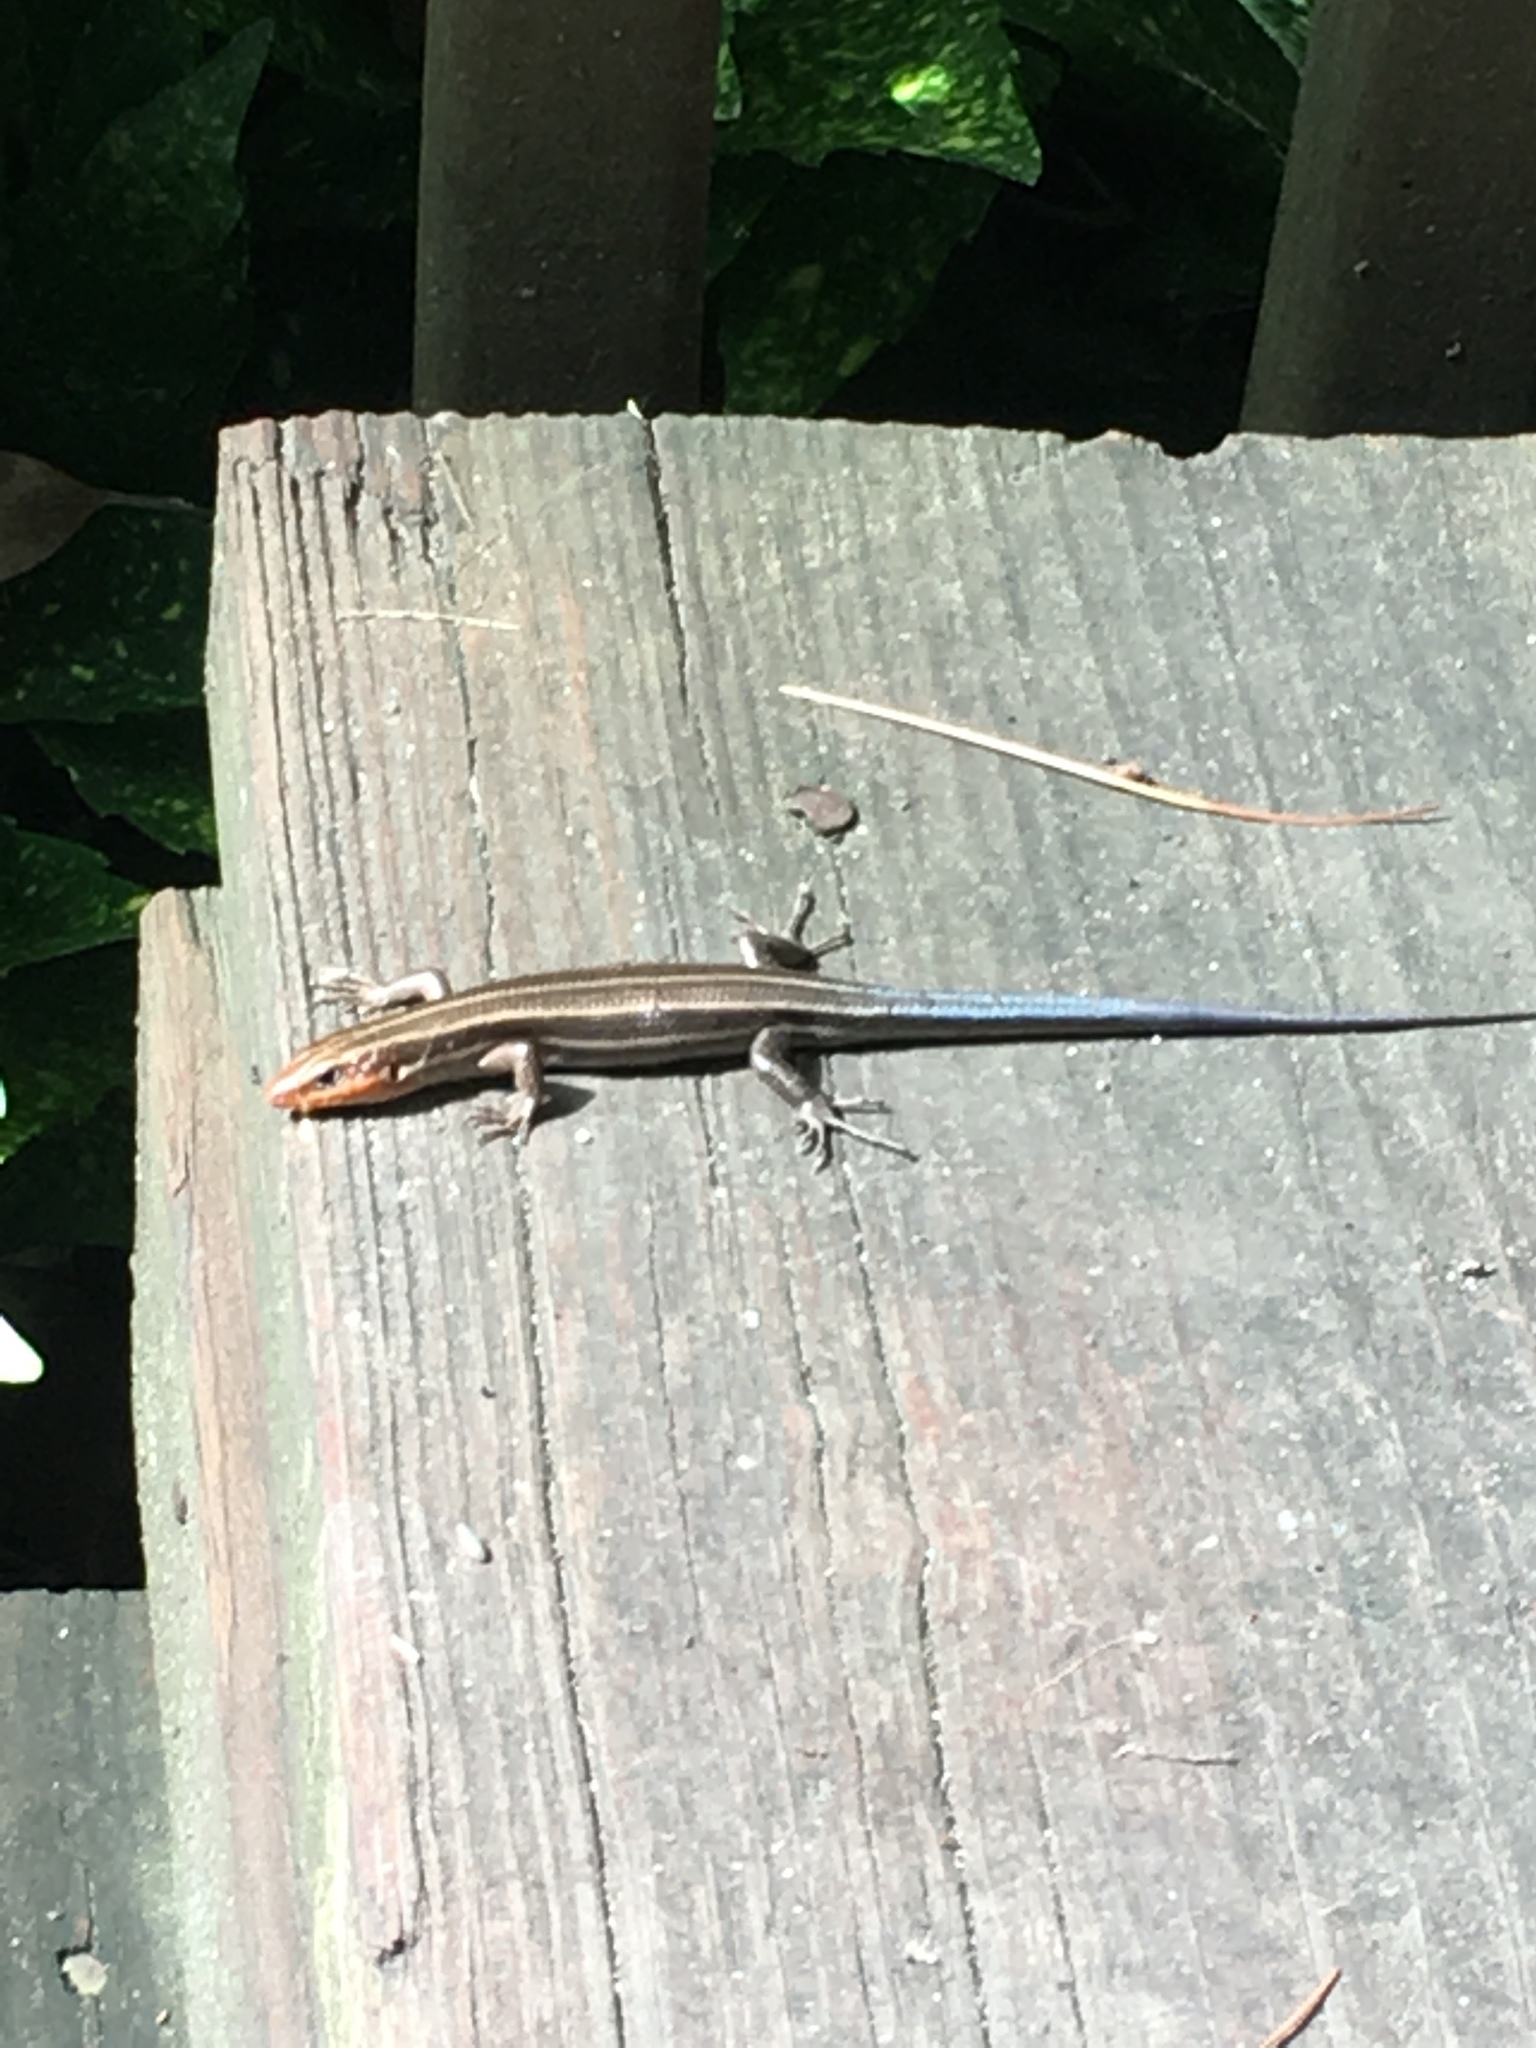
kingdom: Animalia
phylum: Chordata
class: Squamata
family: Scincidae
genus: Plestiodon
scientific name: Plestiodon fasciatus
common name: Five-lined skink
